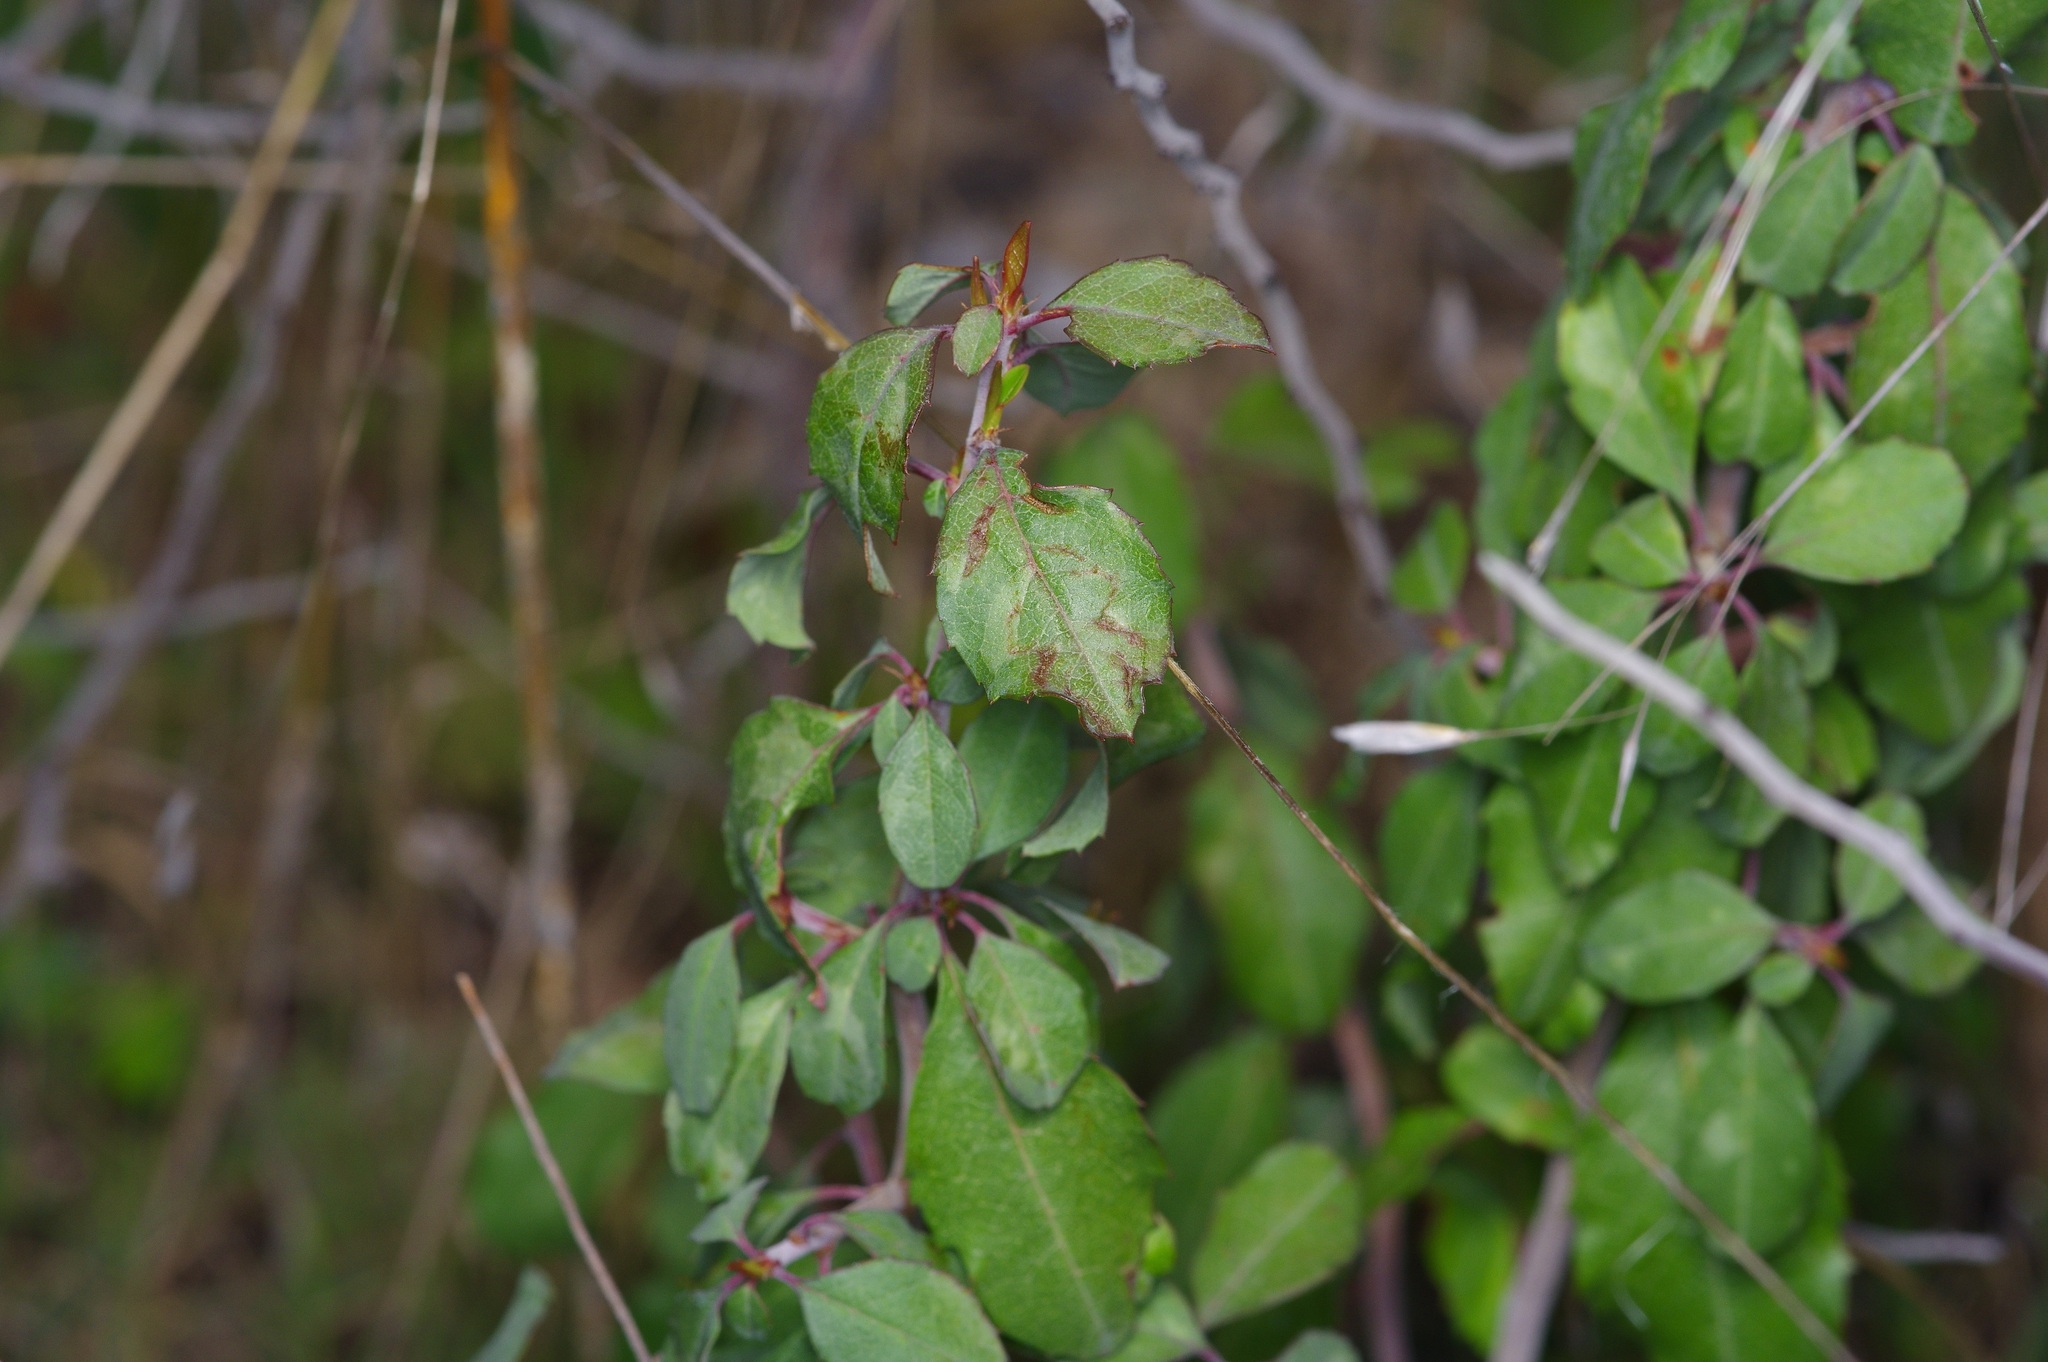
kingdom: Plantae
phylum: Tracheophyta
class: Magnoliopsida
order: Rosales
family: Rosaceae
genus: Prunus
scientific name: Prunus minutiflora
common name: Texas almond
